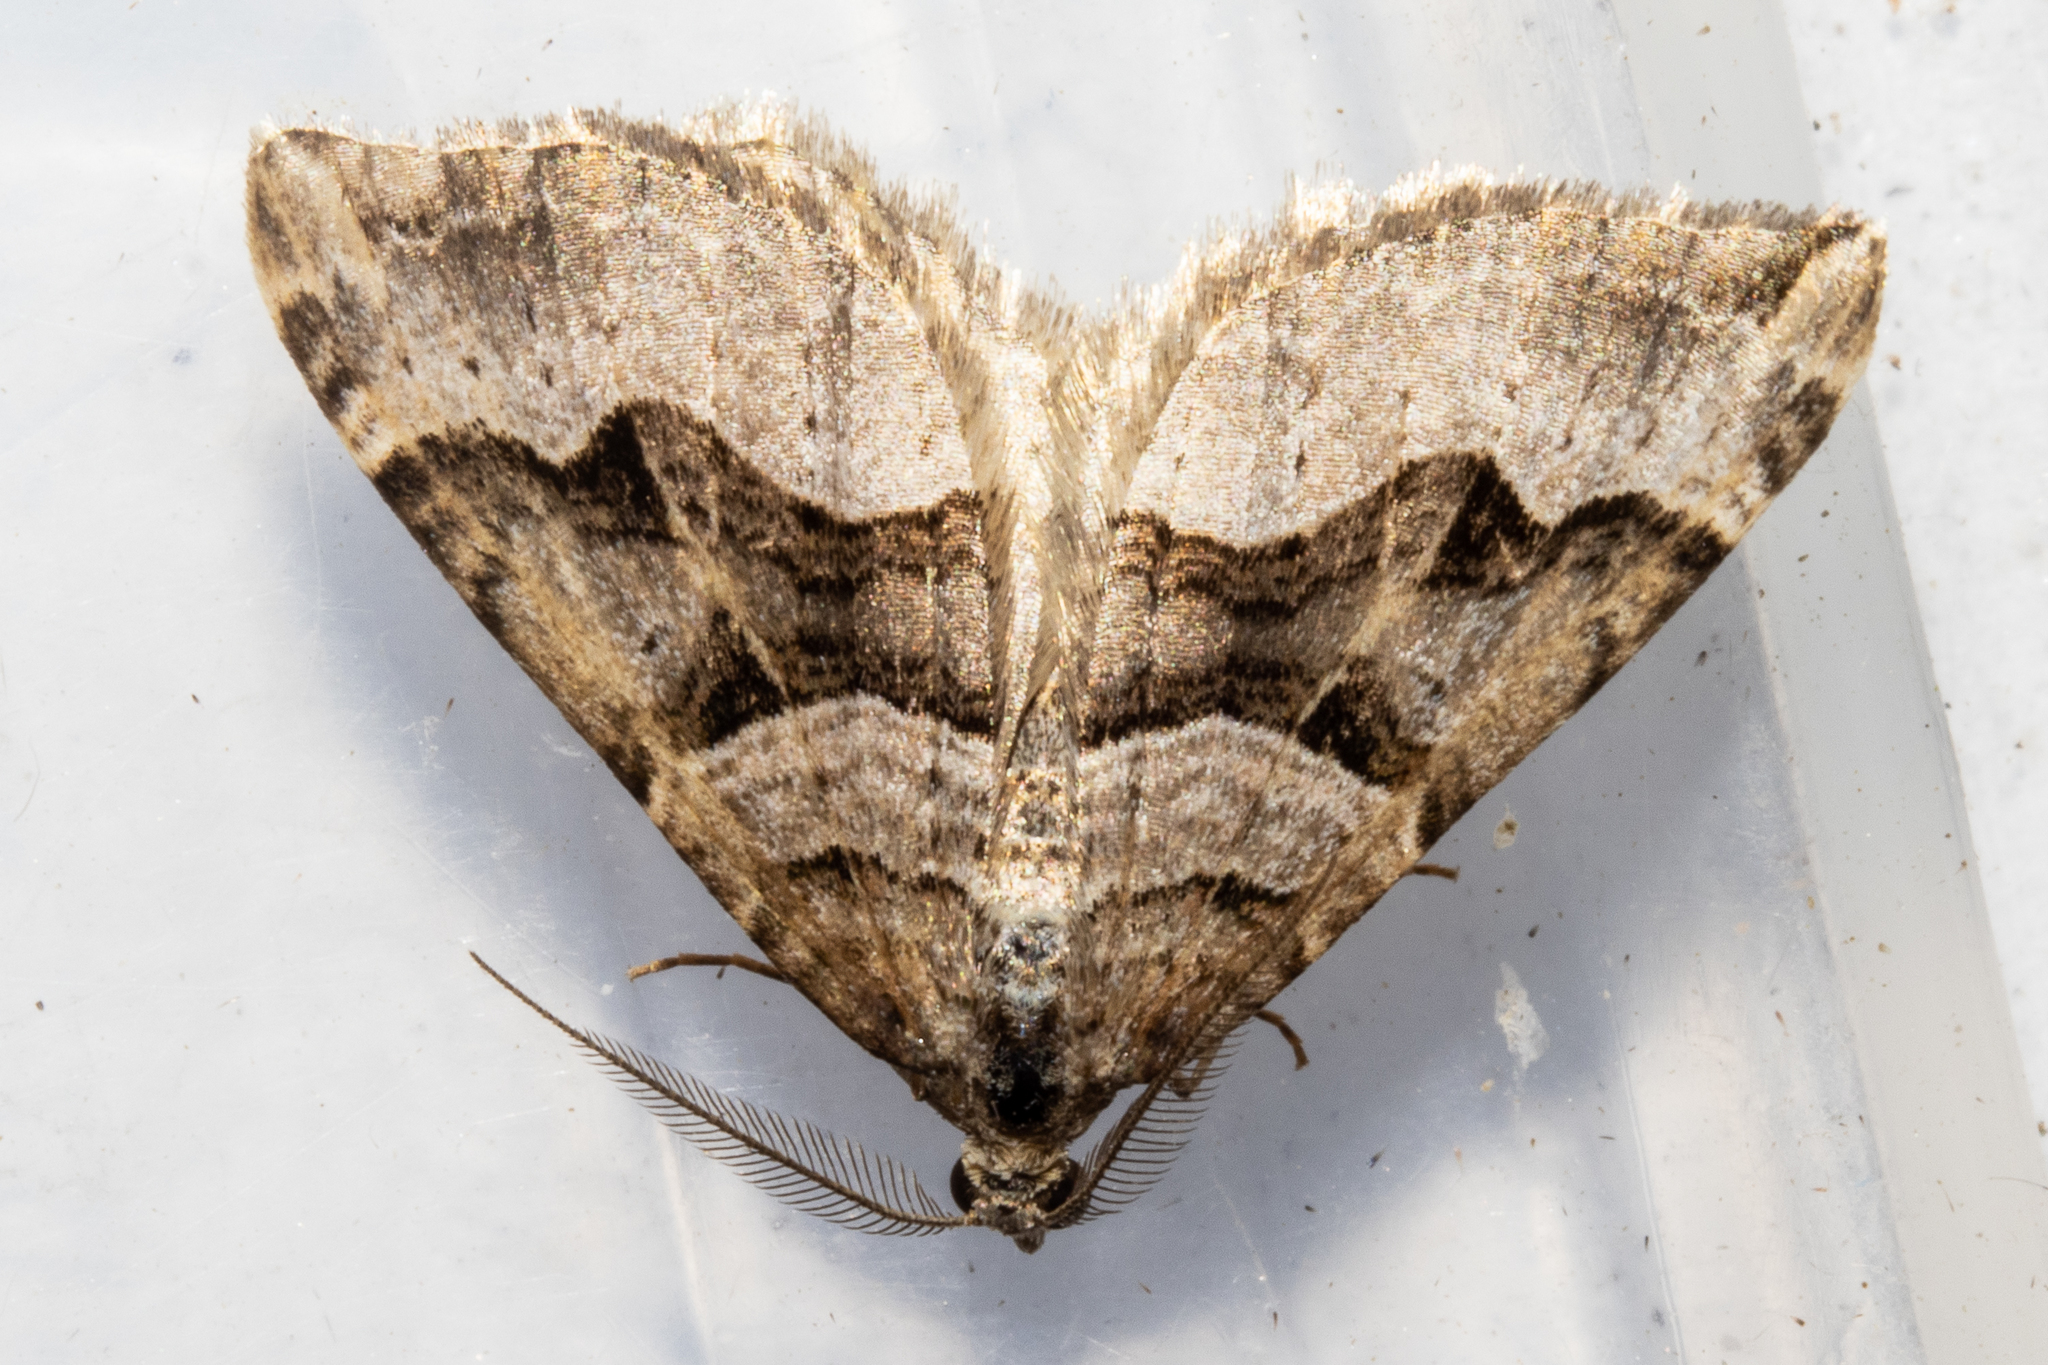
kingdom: Animalia
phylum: Arthropoda
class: Insecta
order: Lepidoptera
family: Geometridae
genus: Xanthorhoe
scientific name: Xanthorhoe semifissata
